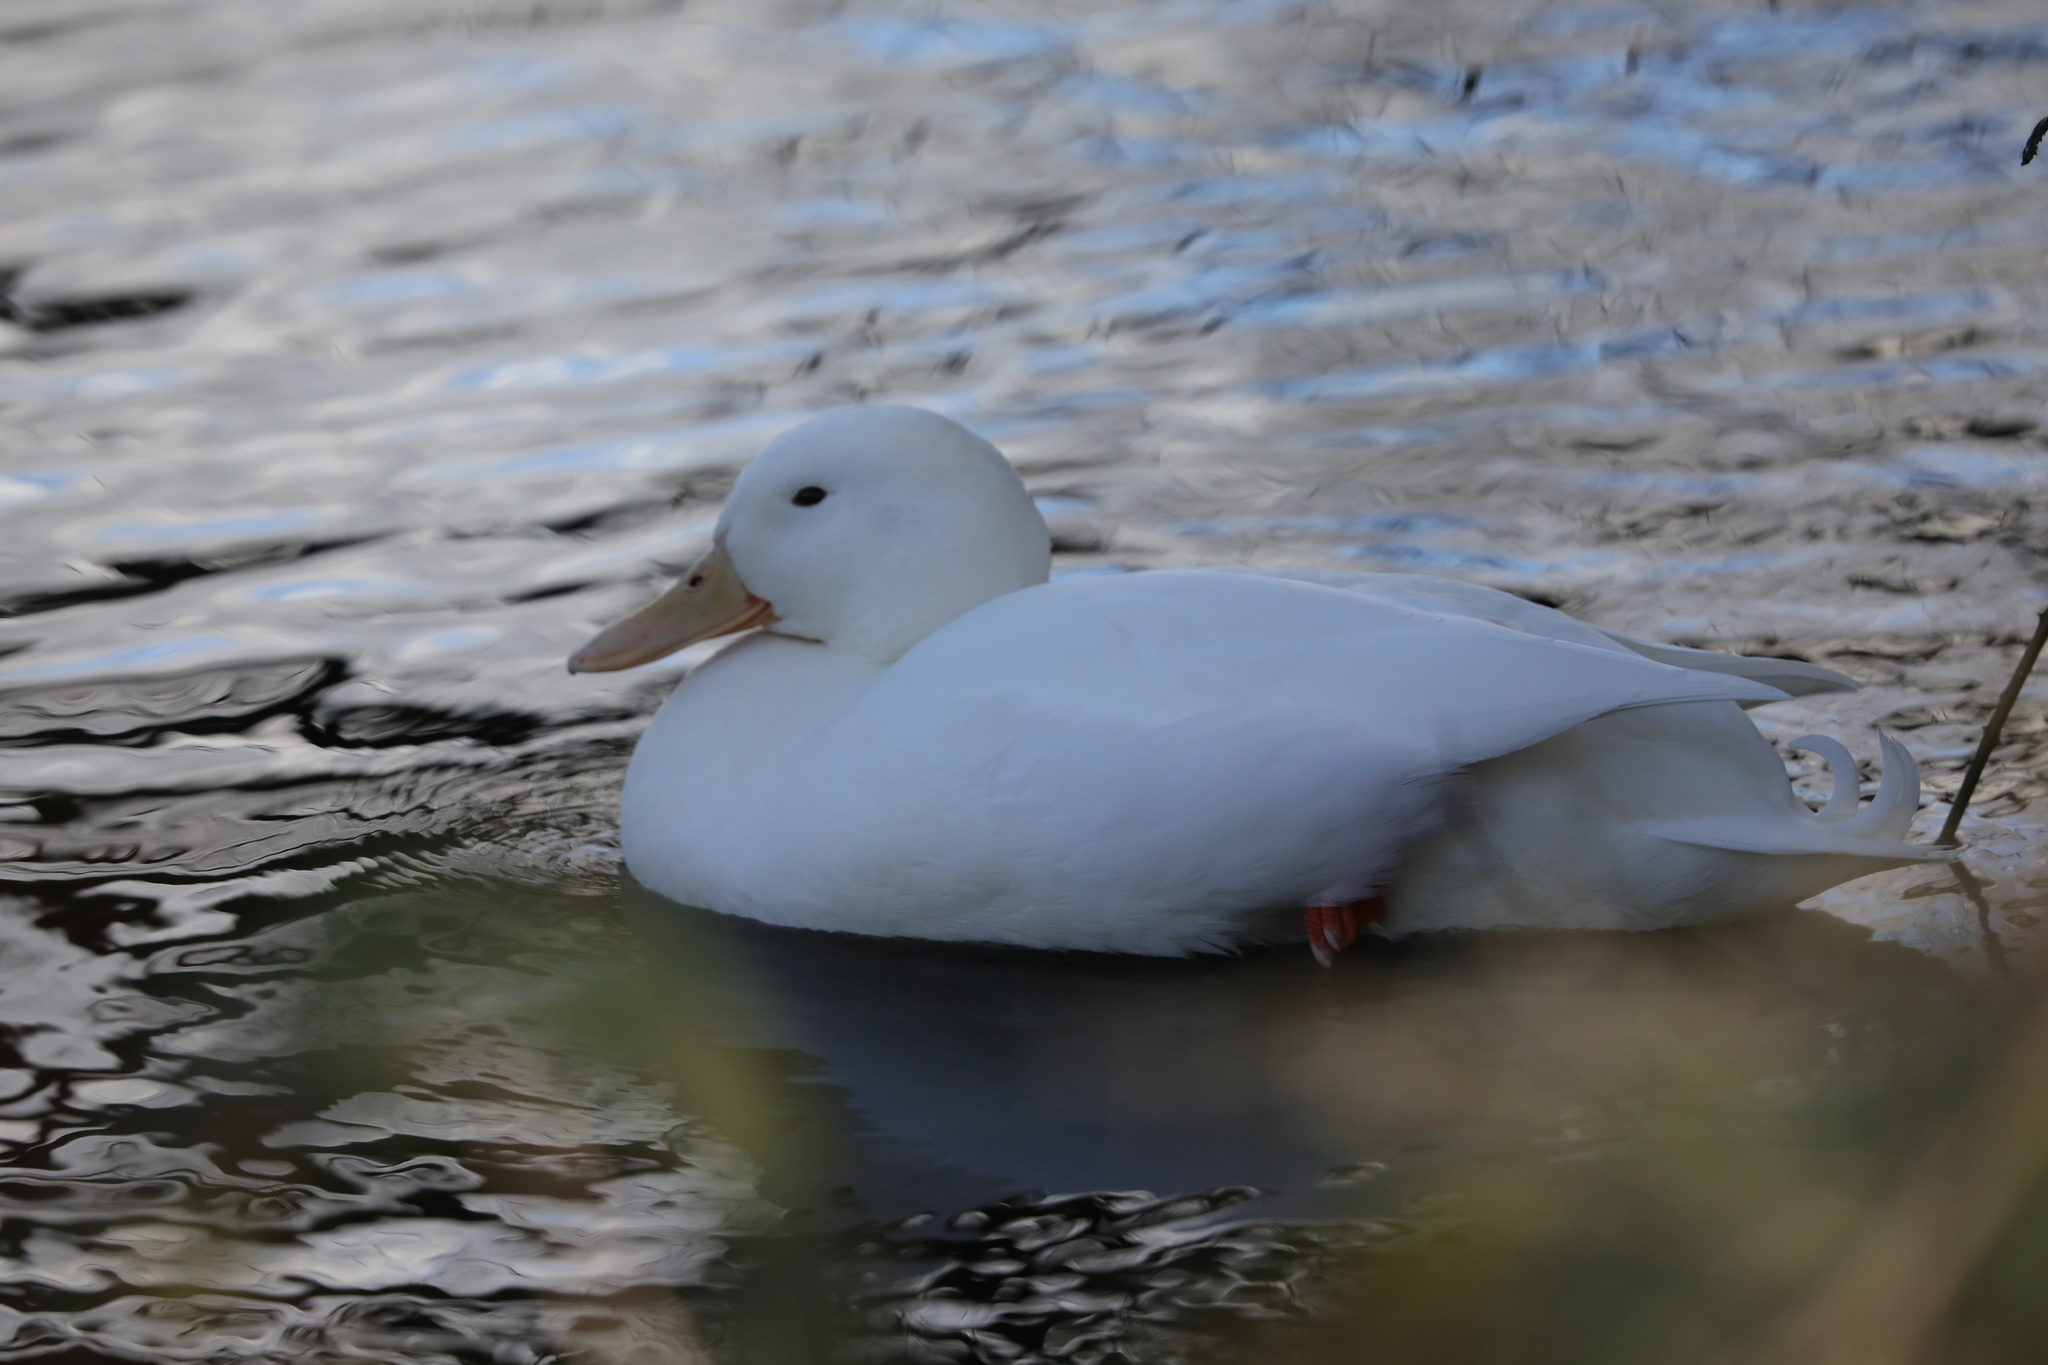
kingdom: Animalia
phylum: Chordata
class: Aves
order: Anseriformes
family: Anatidae
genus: Anas
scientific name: Anas platyrhynchos
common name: Mallard
